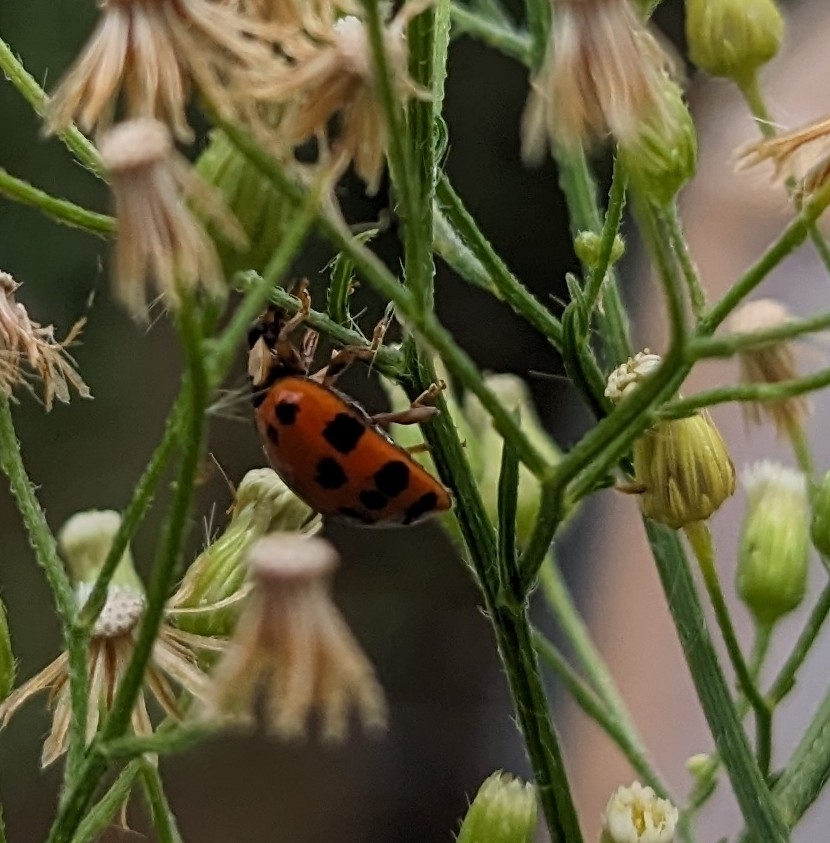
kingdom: Animalia
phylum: Arthropoda
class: Insecta
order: Coleoptera
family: Coccinellidae
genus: Harmonia
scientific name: Harmonia axyridis
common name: Harlequin ladybird
